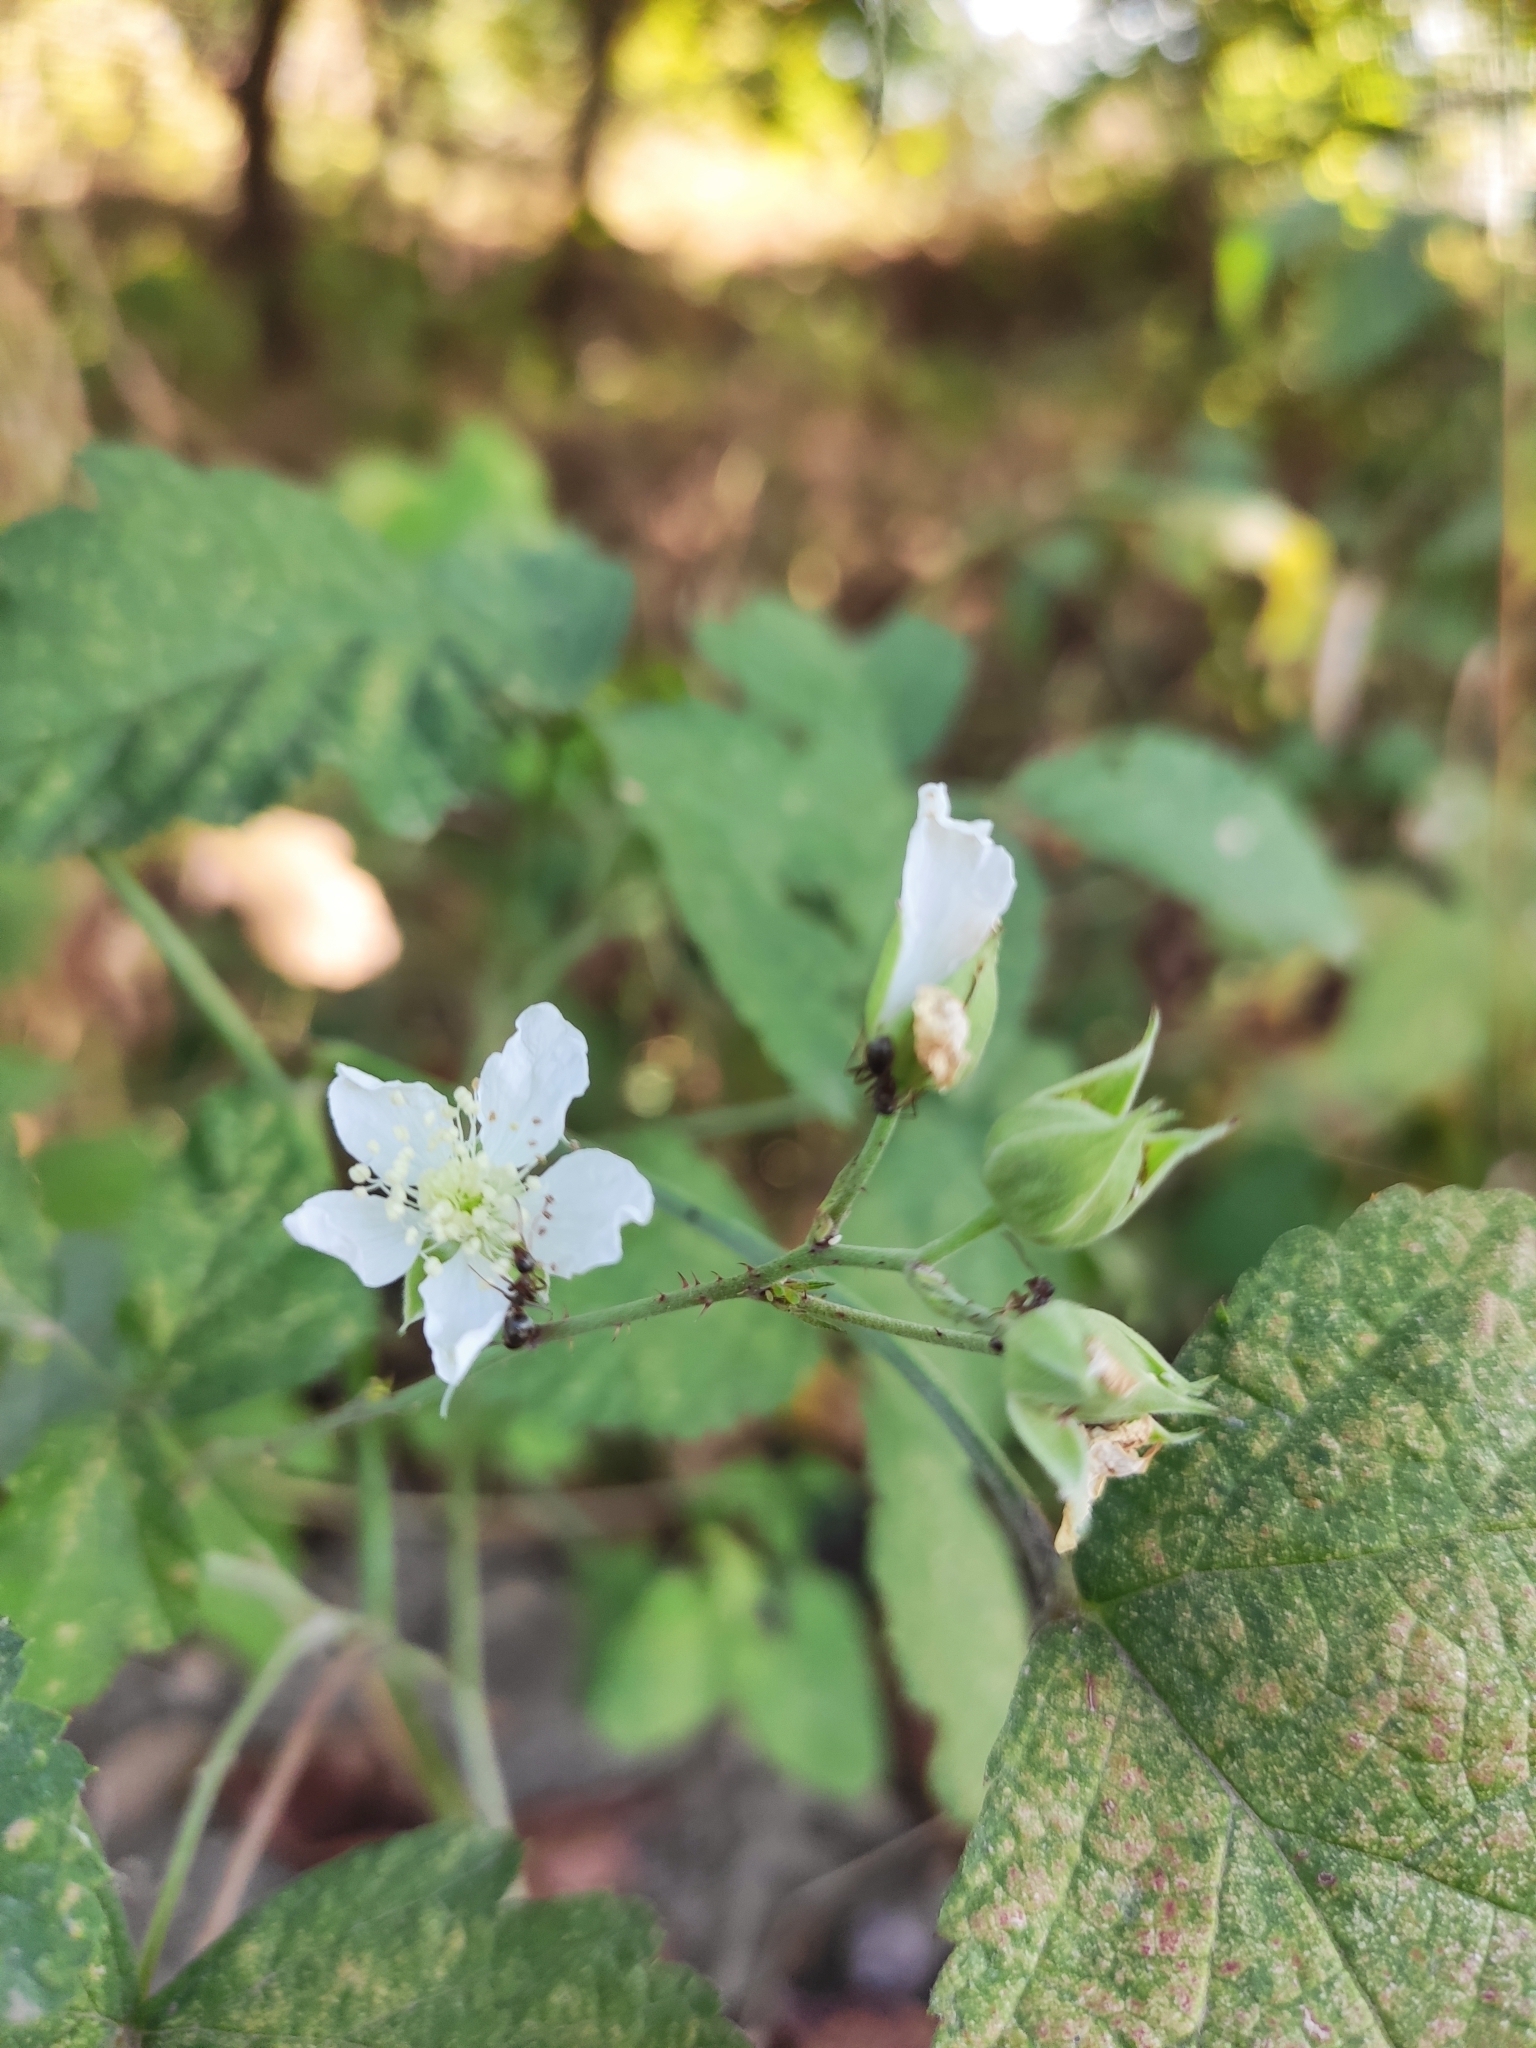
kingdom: Plantae
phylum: Tracheophyta
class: Magnoliopsida
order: Rosales
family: Rosaceae
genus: Rubus
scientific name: Rubus caesius
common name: Dewberry
